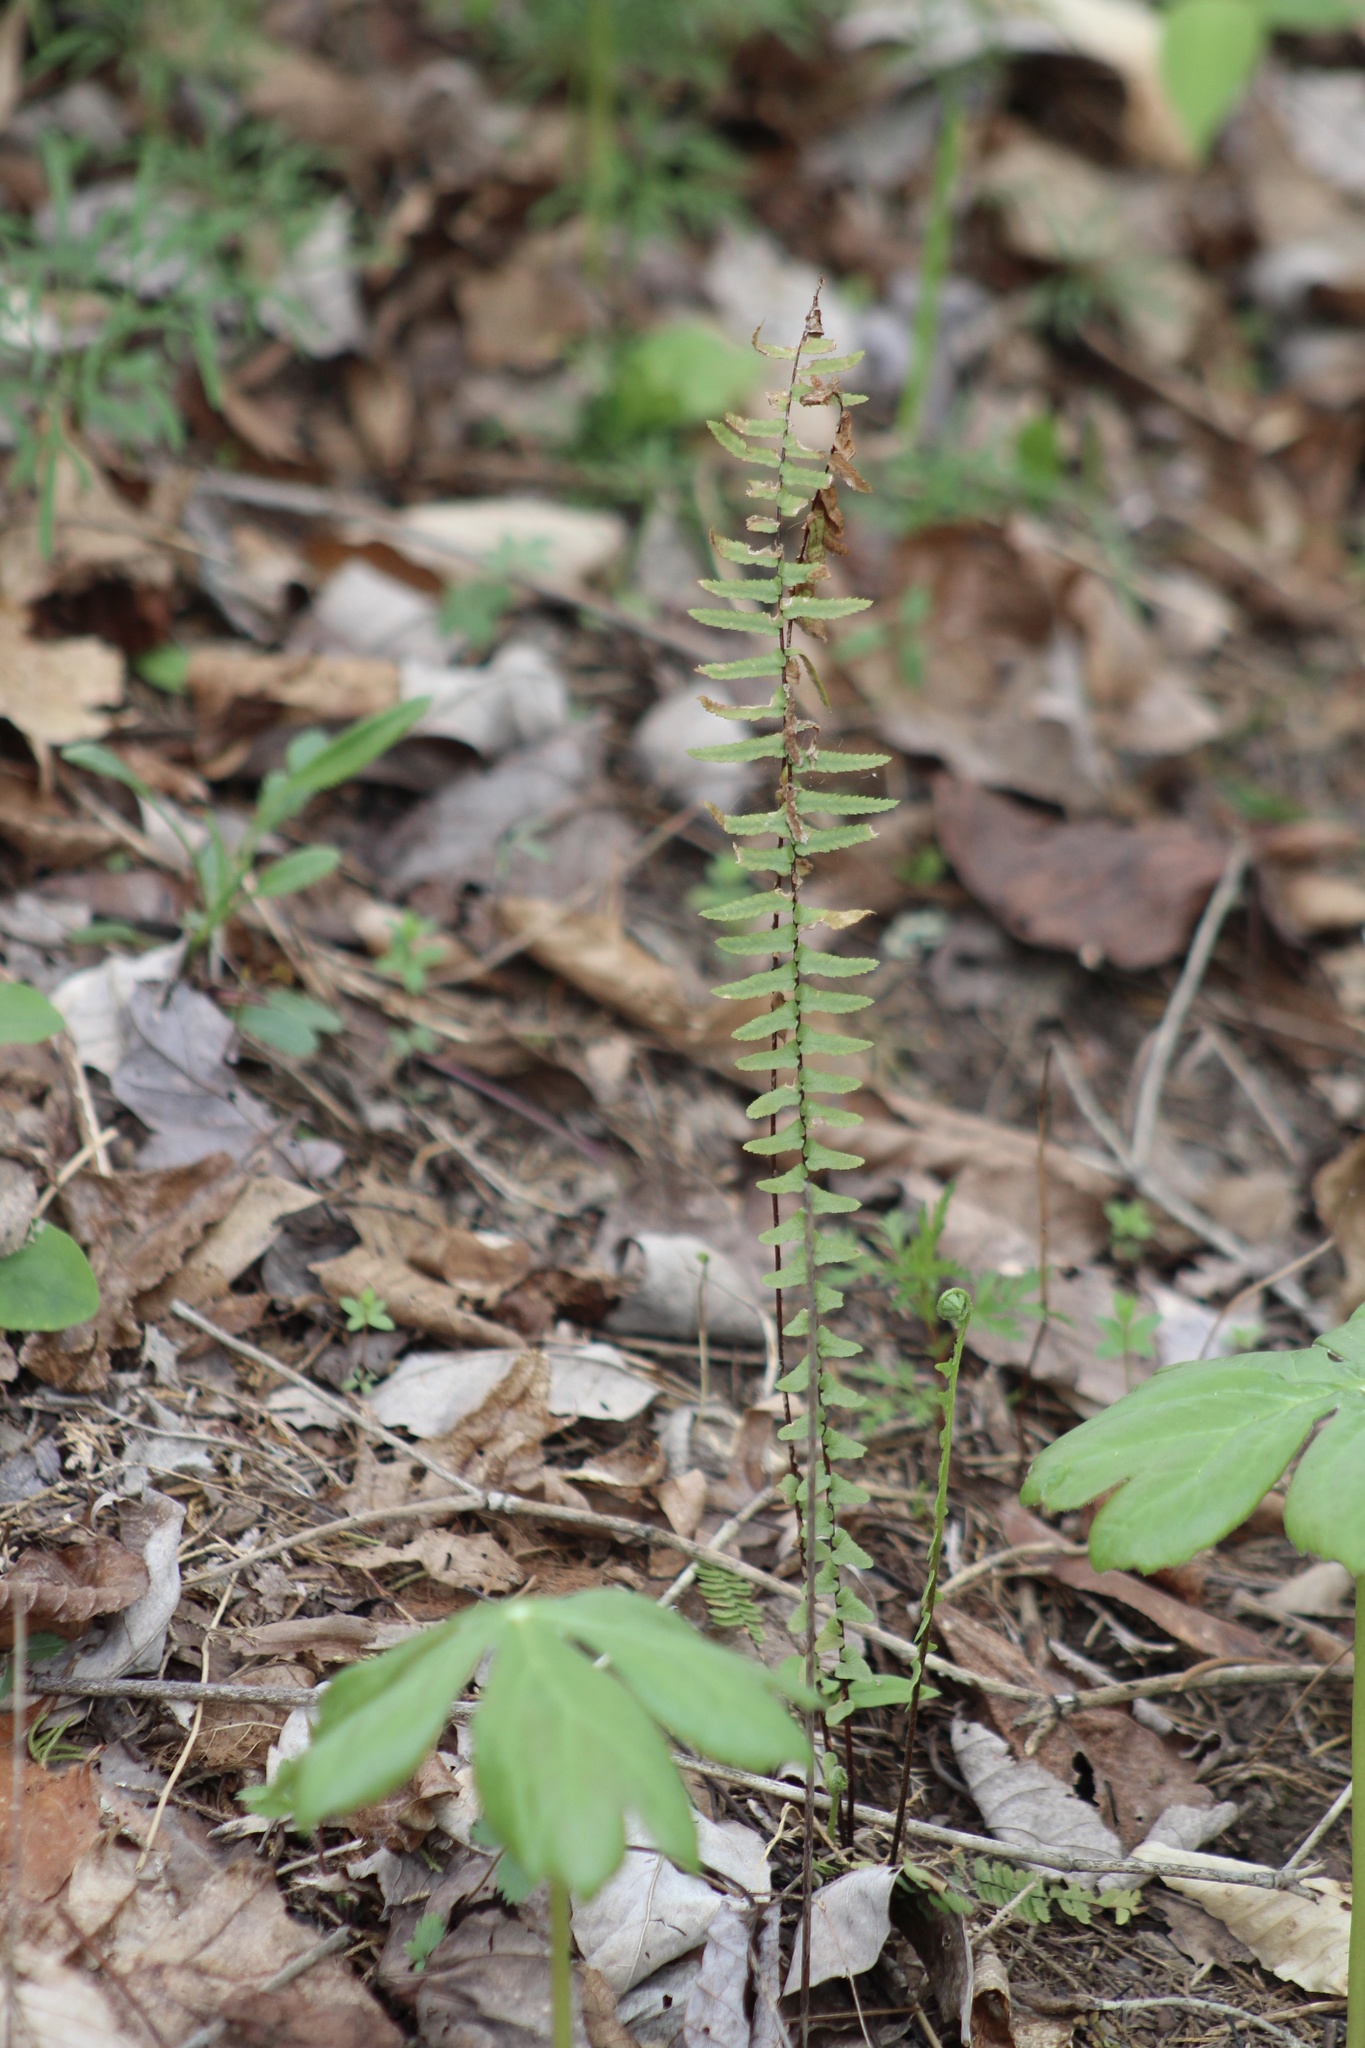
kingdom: Plantae
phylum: Tracheophyta
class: Polypodiopsida
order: Polypodiales
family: Aspleniaceae
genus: Asplenium
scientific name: Asplenium platyneuron
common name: Ebony spleenwort
